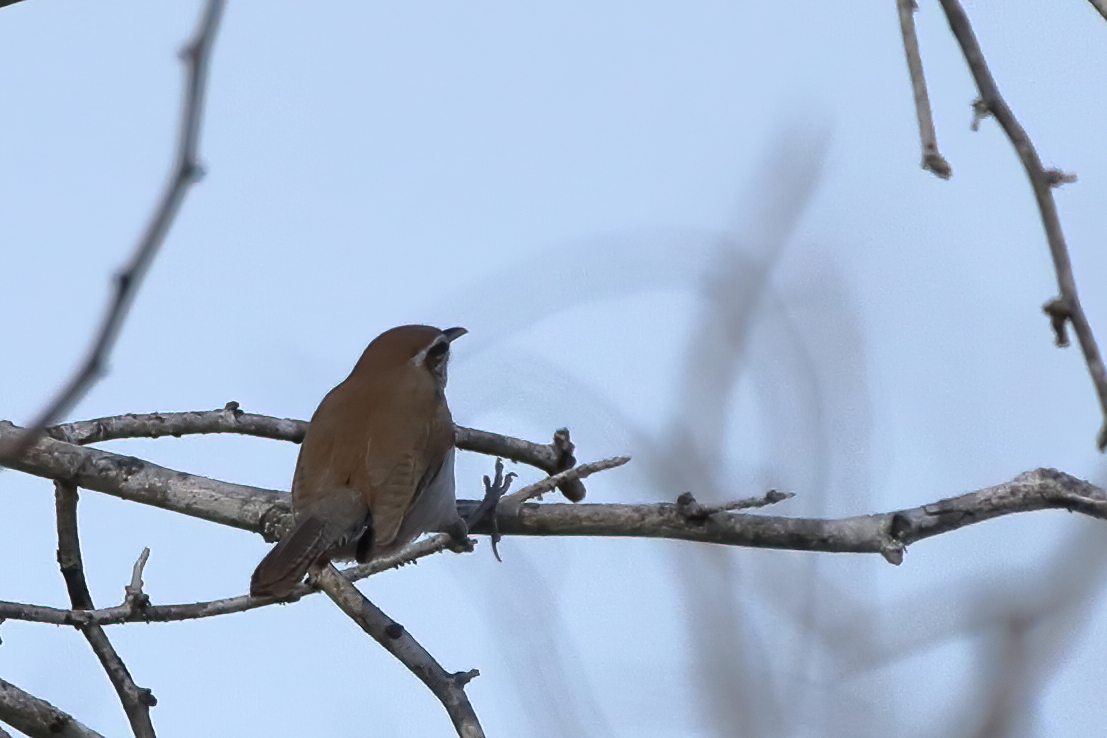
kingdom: Animalia
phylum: Chordata
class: Aves
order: Passeriformes
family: Troglodytidae
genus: Thryomanes
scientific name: Thryomanes bewickii
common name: Bewick's wren
